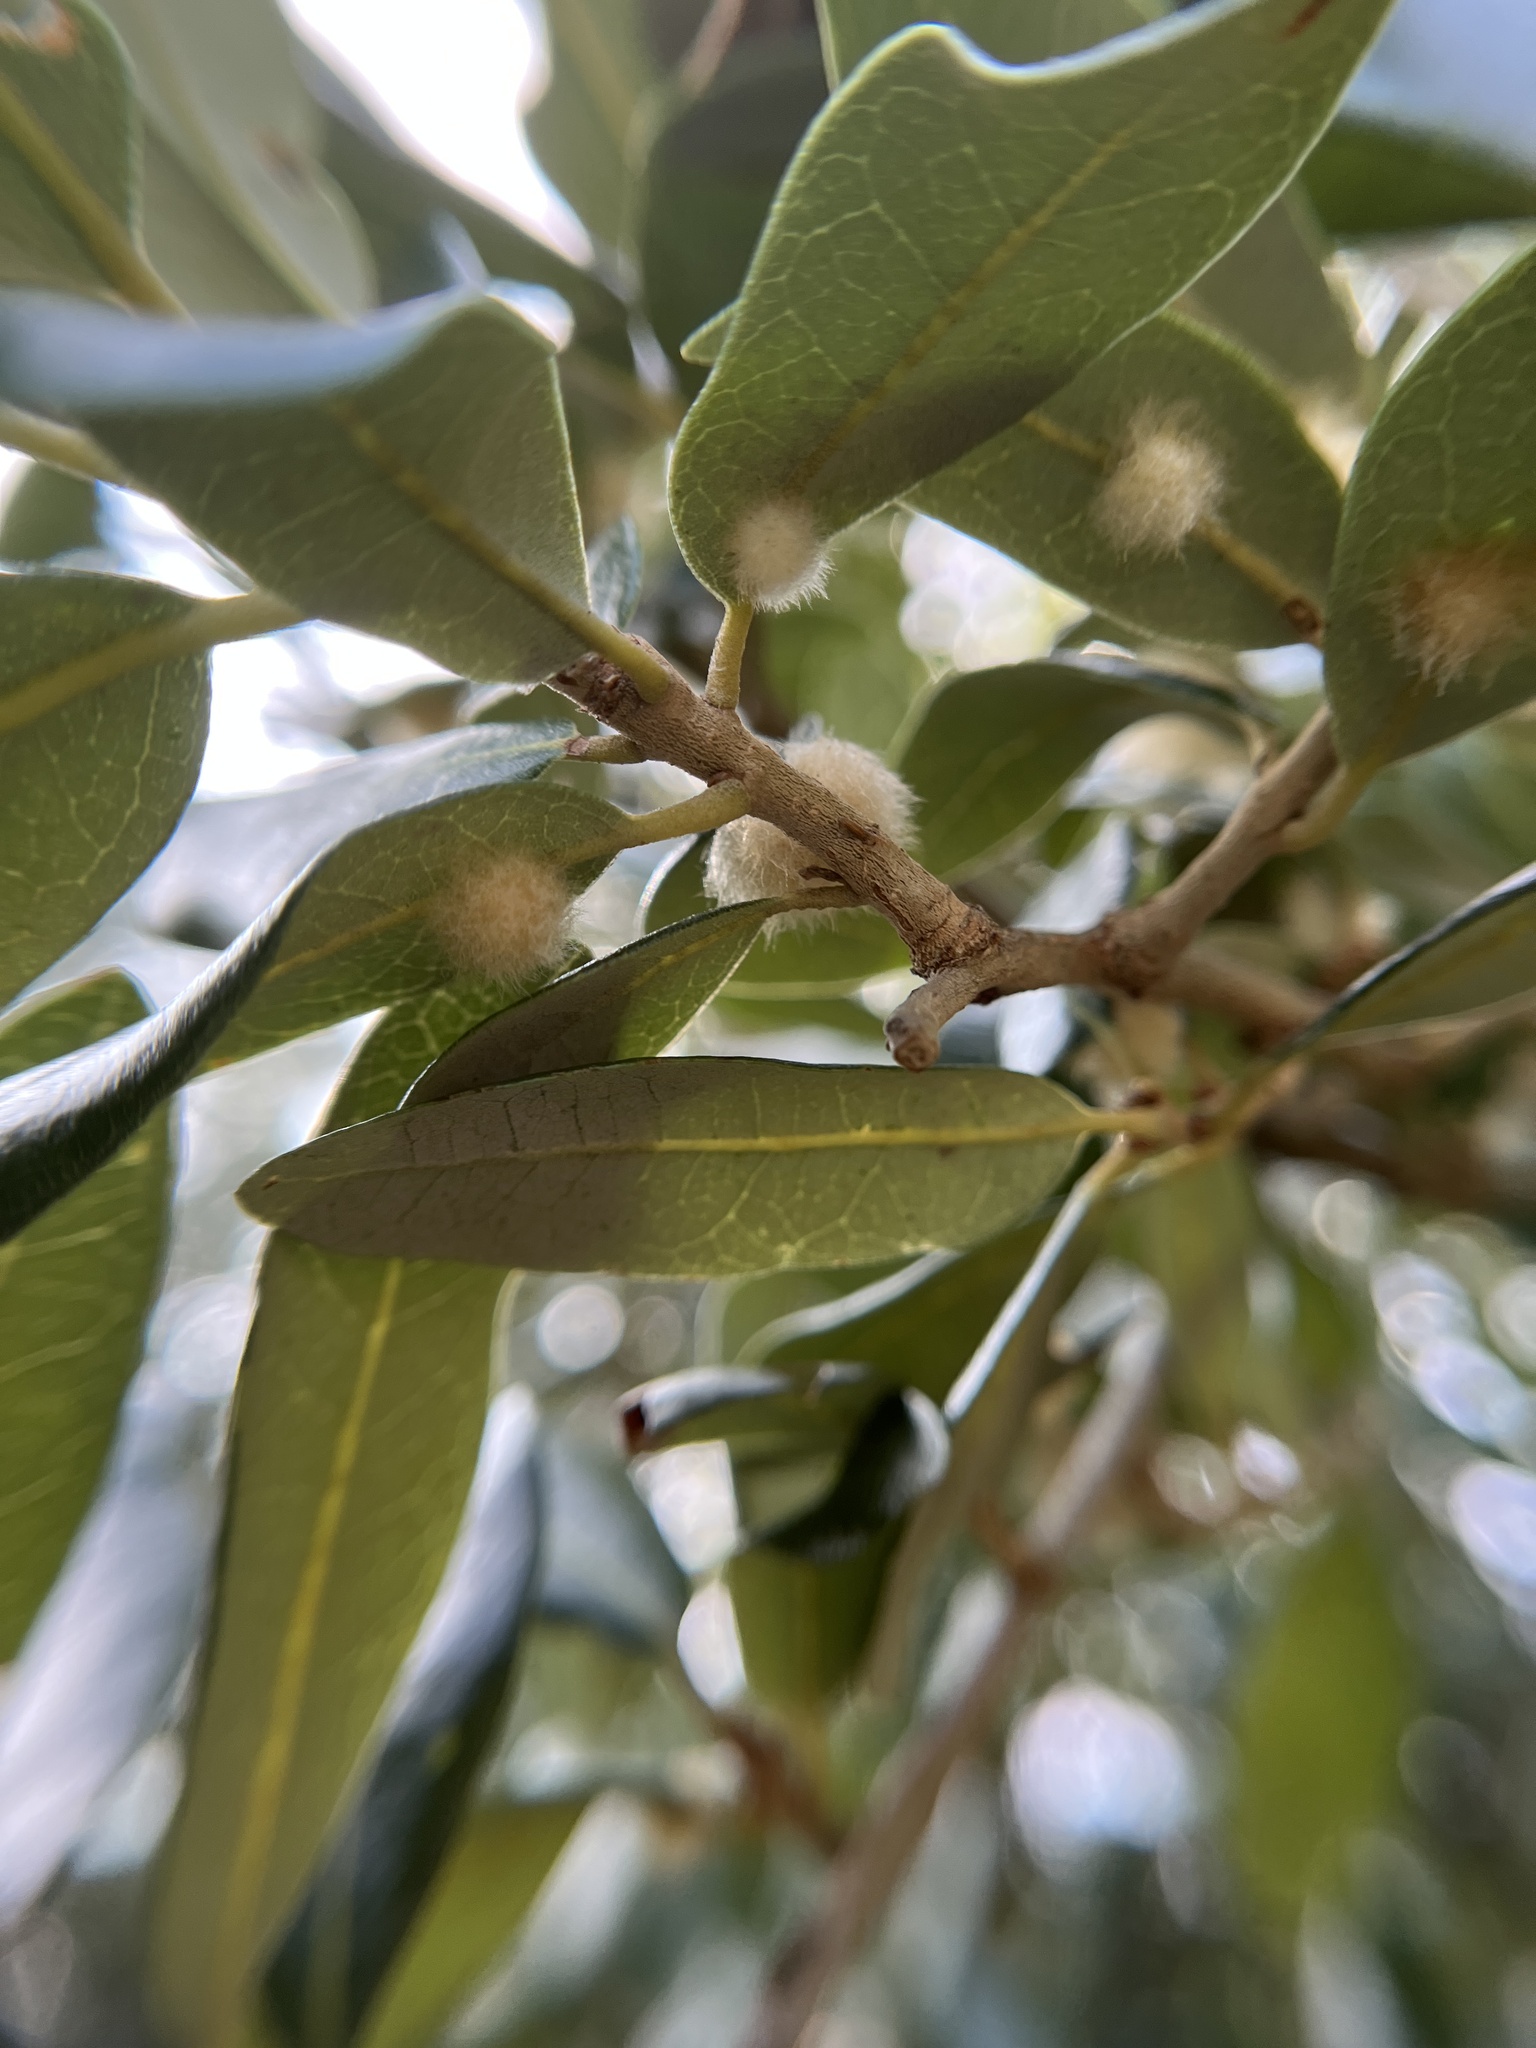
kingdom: Animalia
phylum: Arthropoda
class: Insecta
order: Hymenoptera
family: Cynipidae
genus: Andricus
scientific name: Andricus Druon quercuslanigerum
